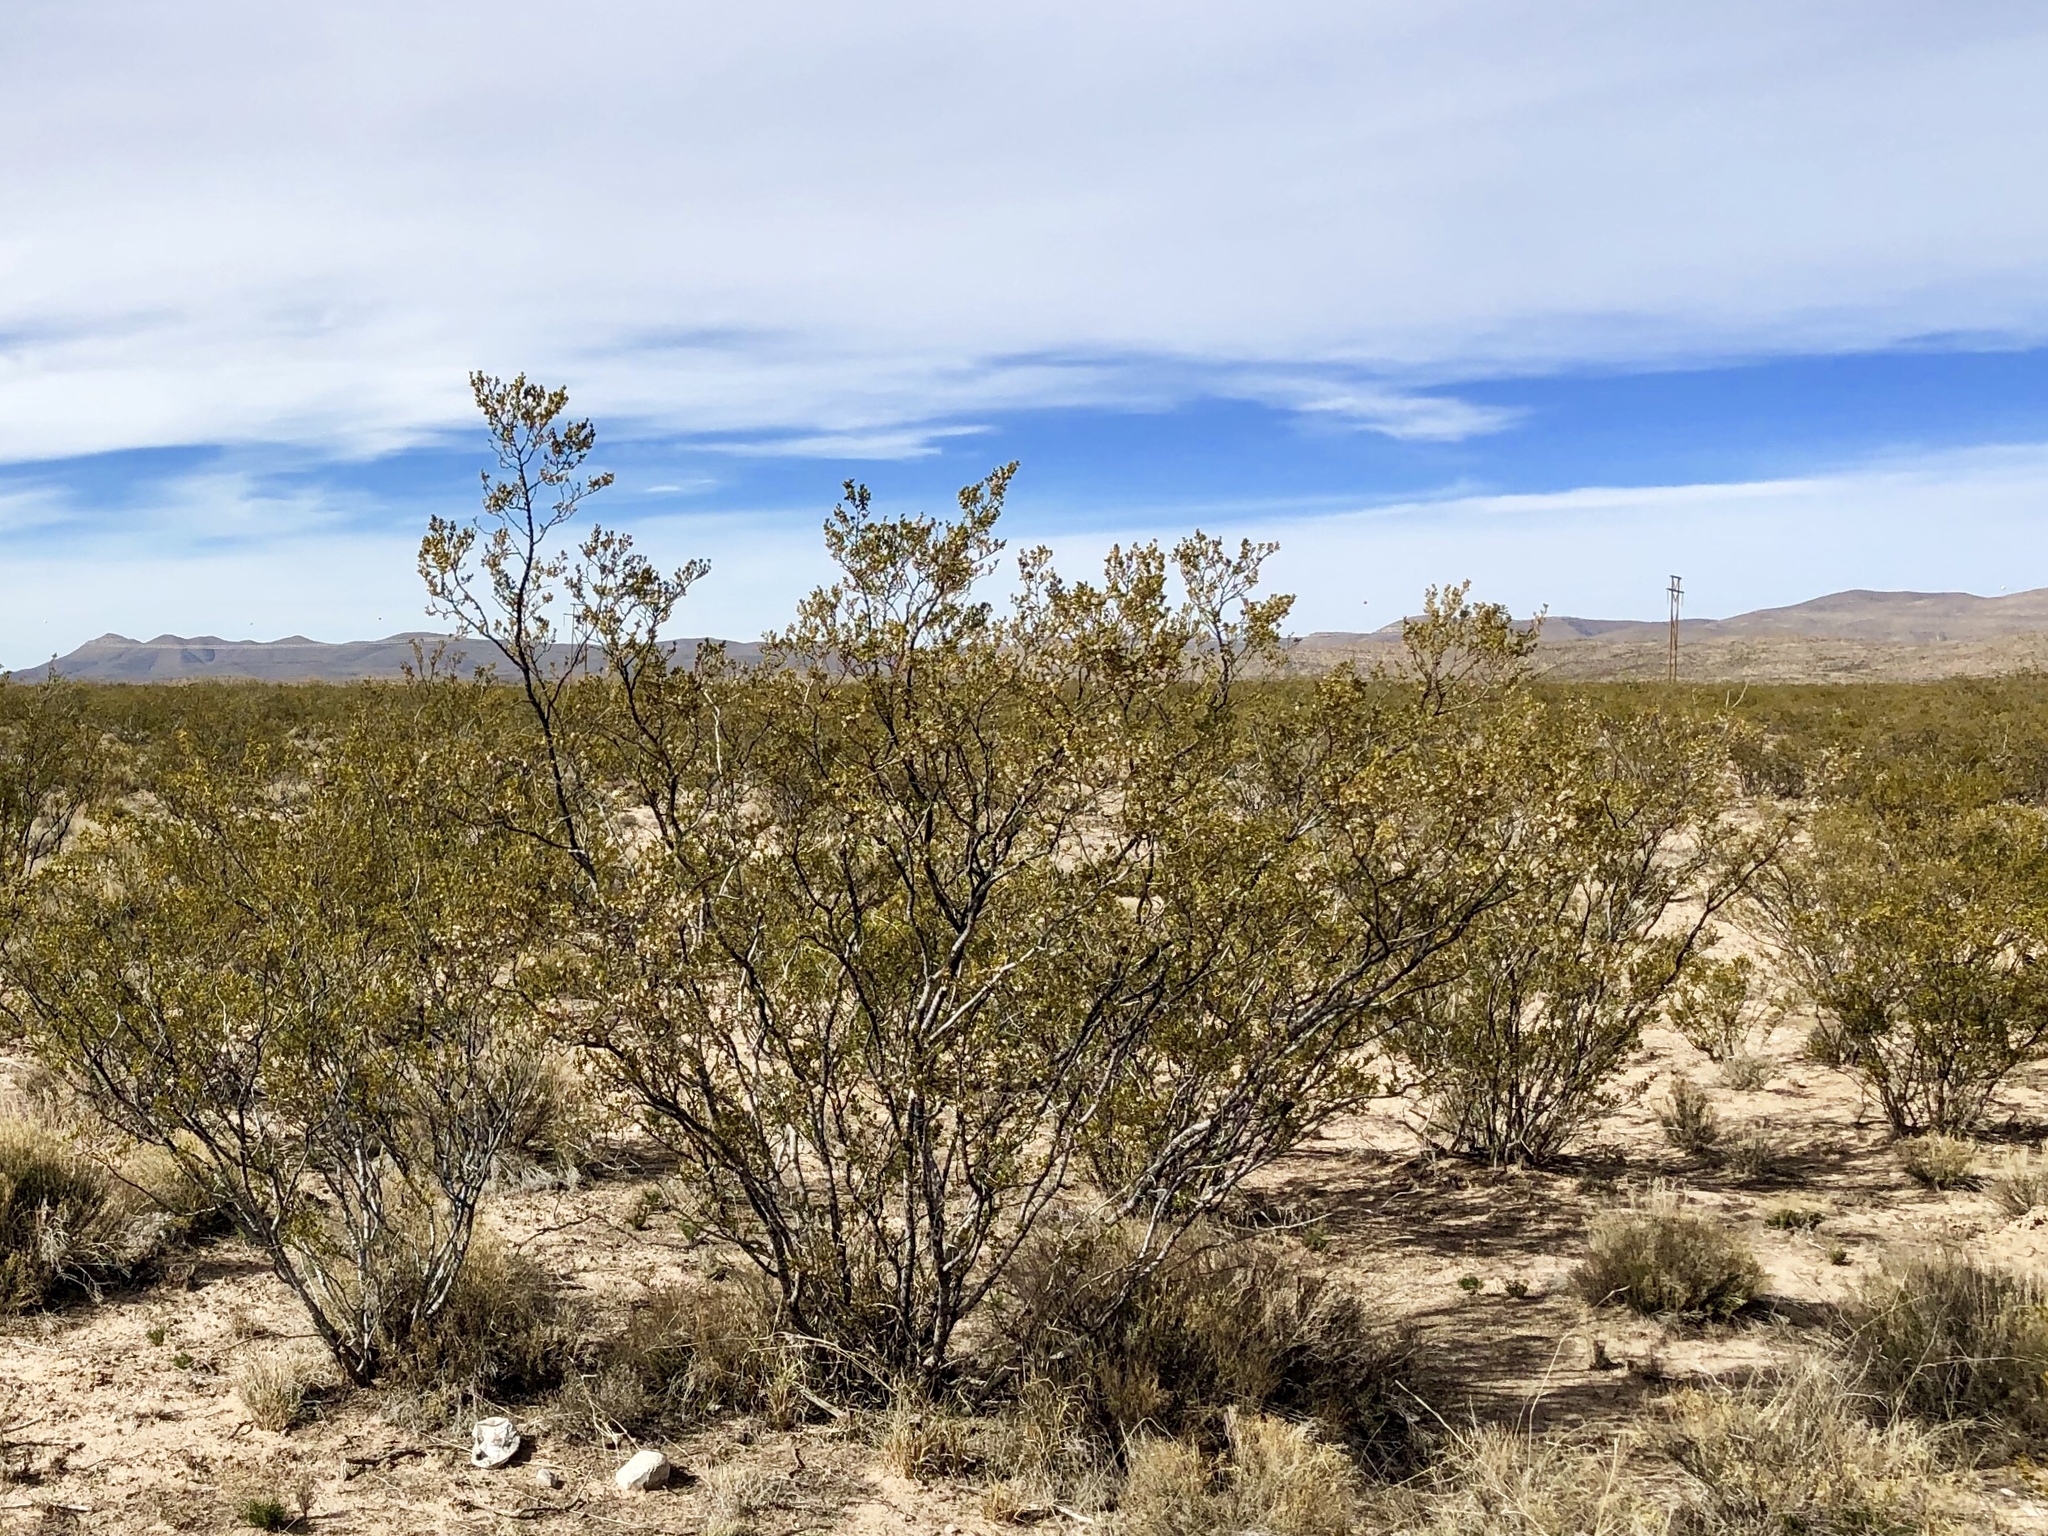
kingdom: Plantae
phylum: Tracheophyta
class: Magnoliopsida
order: Zygophyllales
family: Zygophyllaceae
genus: Larrea
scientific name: Larrea tridentata
